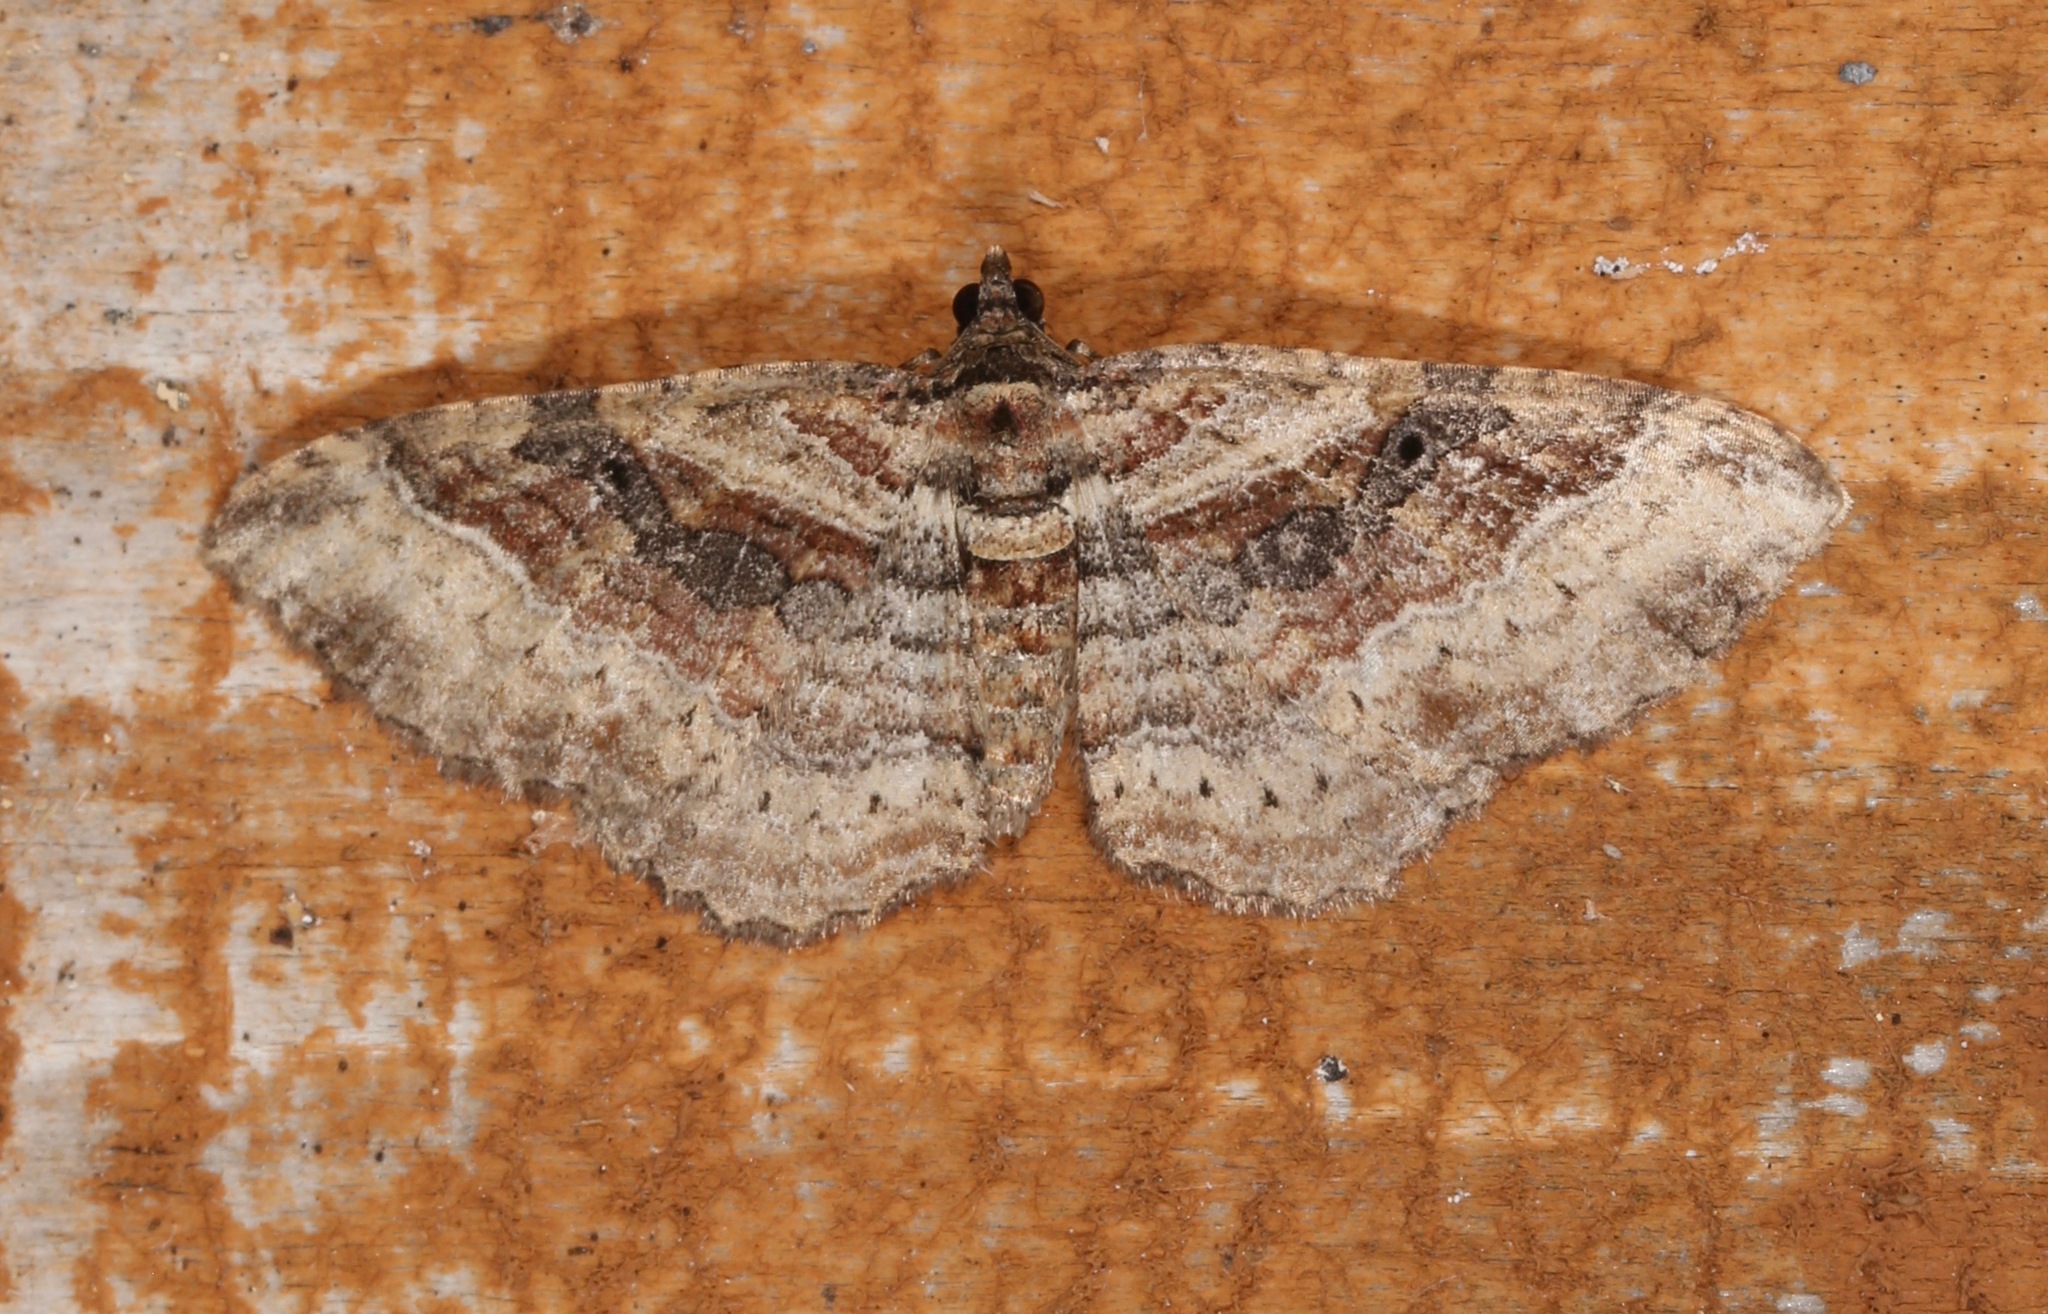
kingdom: Animalia
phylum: Arthropoda
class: Insecta
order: Lepidoptera
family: Geometridae
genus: Costaconvexa
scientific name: Costaconvexa centrostrigaria
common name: Bent-line carpet
